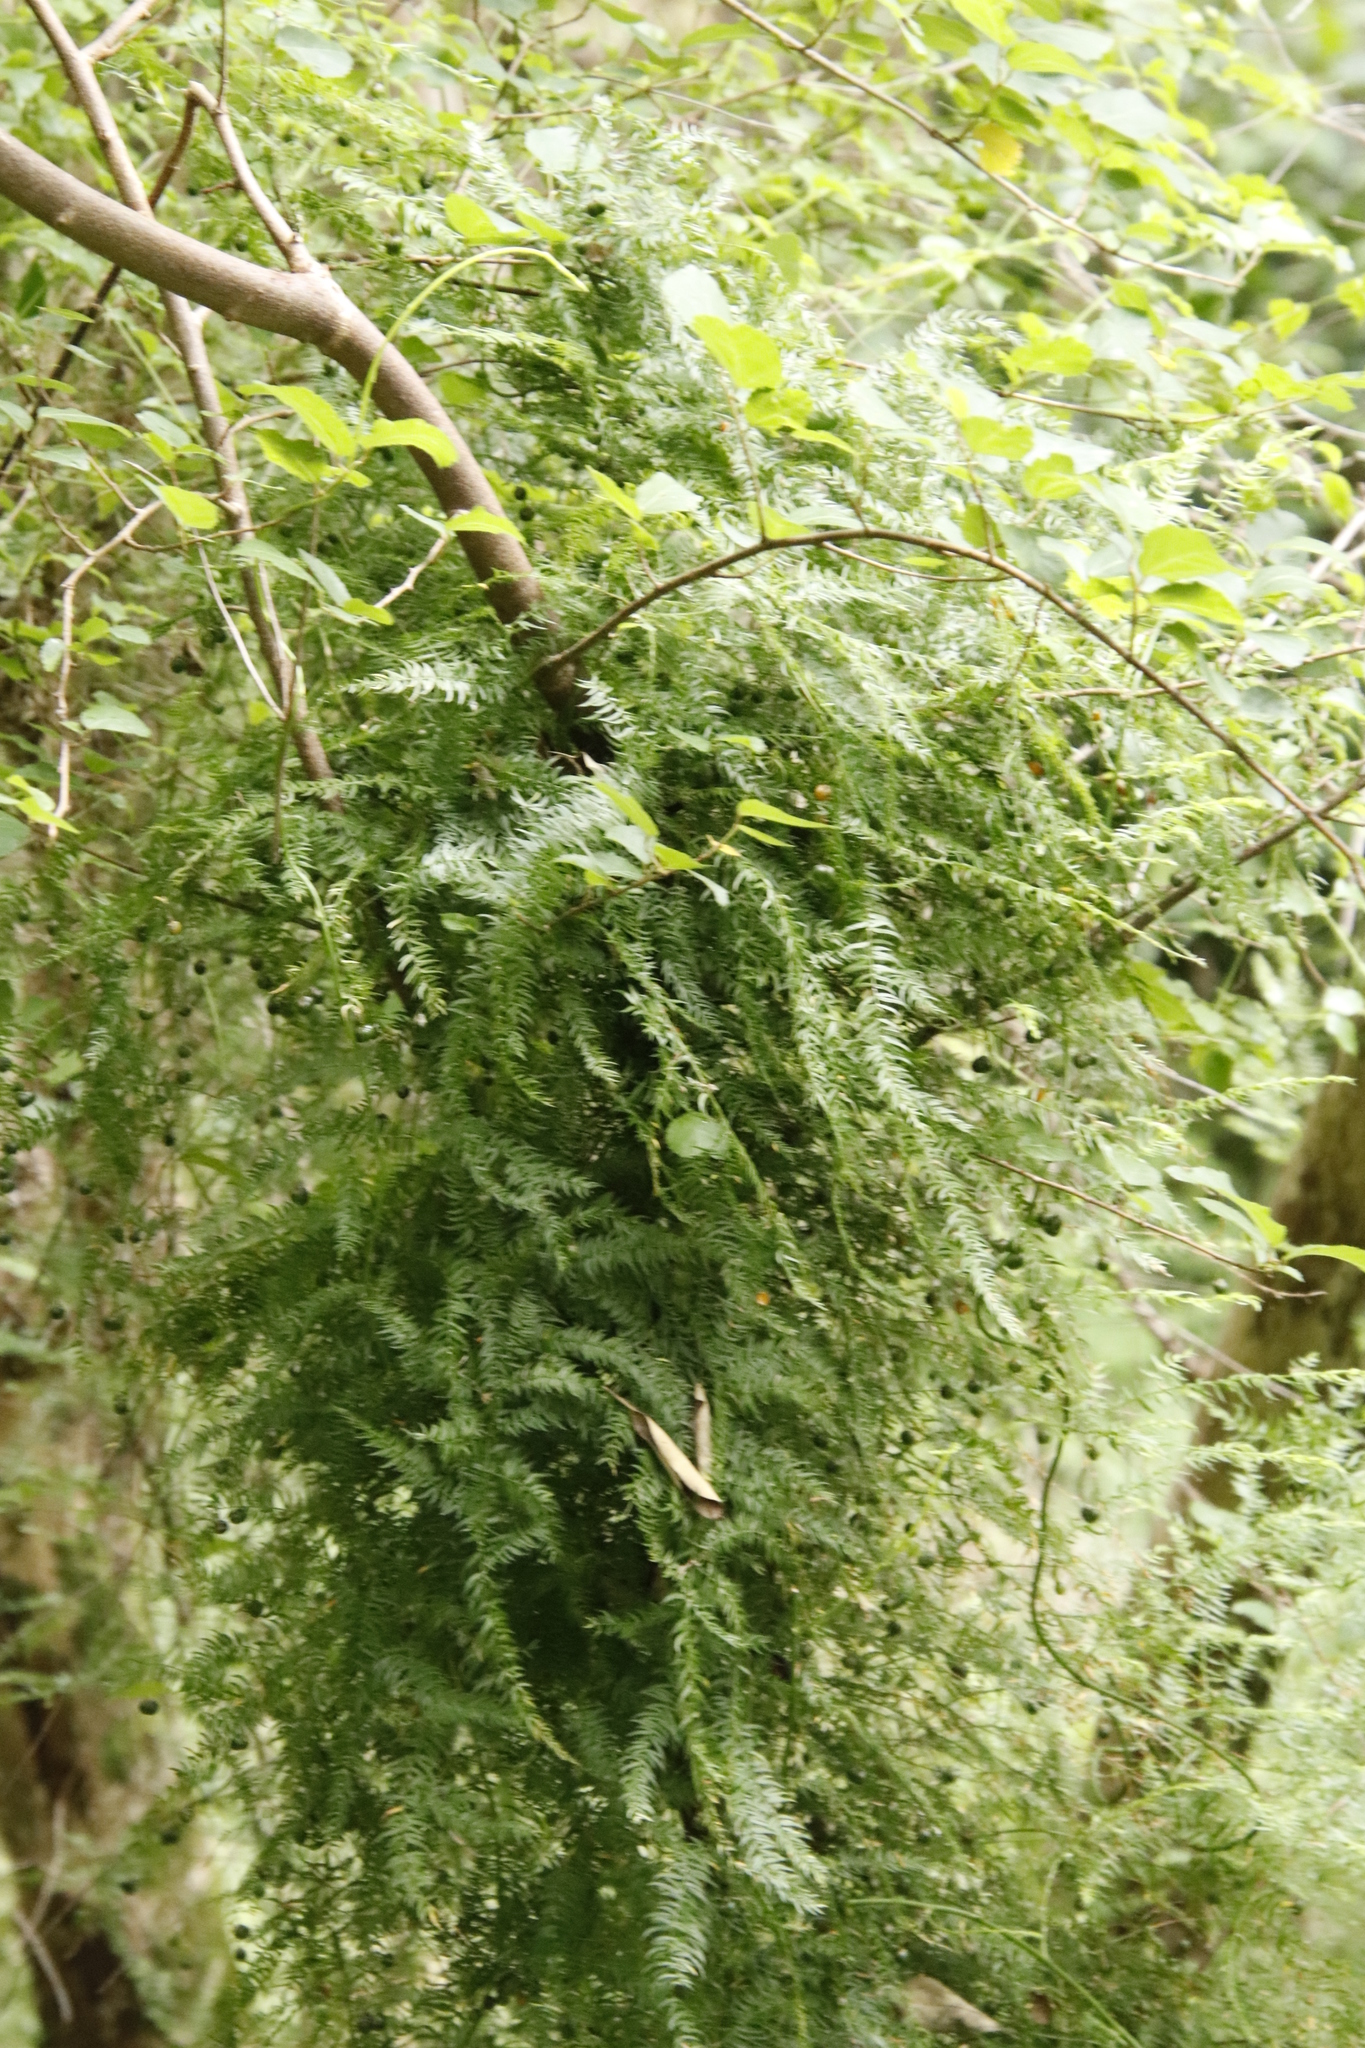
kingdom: Plantae
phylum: Tracheophyta
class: Liliopsida
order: Asparagales
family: Asparagaceae
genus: Asparagus
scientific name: Asparagus scandens
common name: Asparagus-fern
